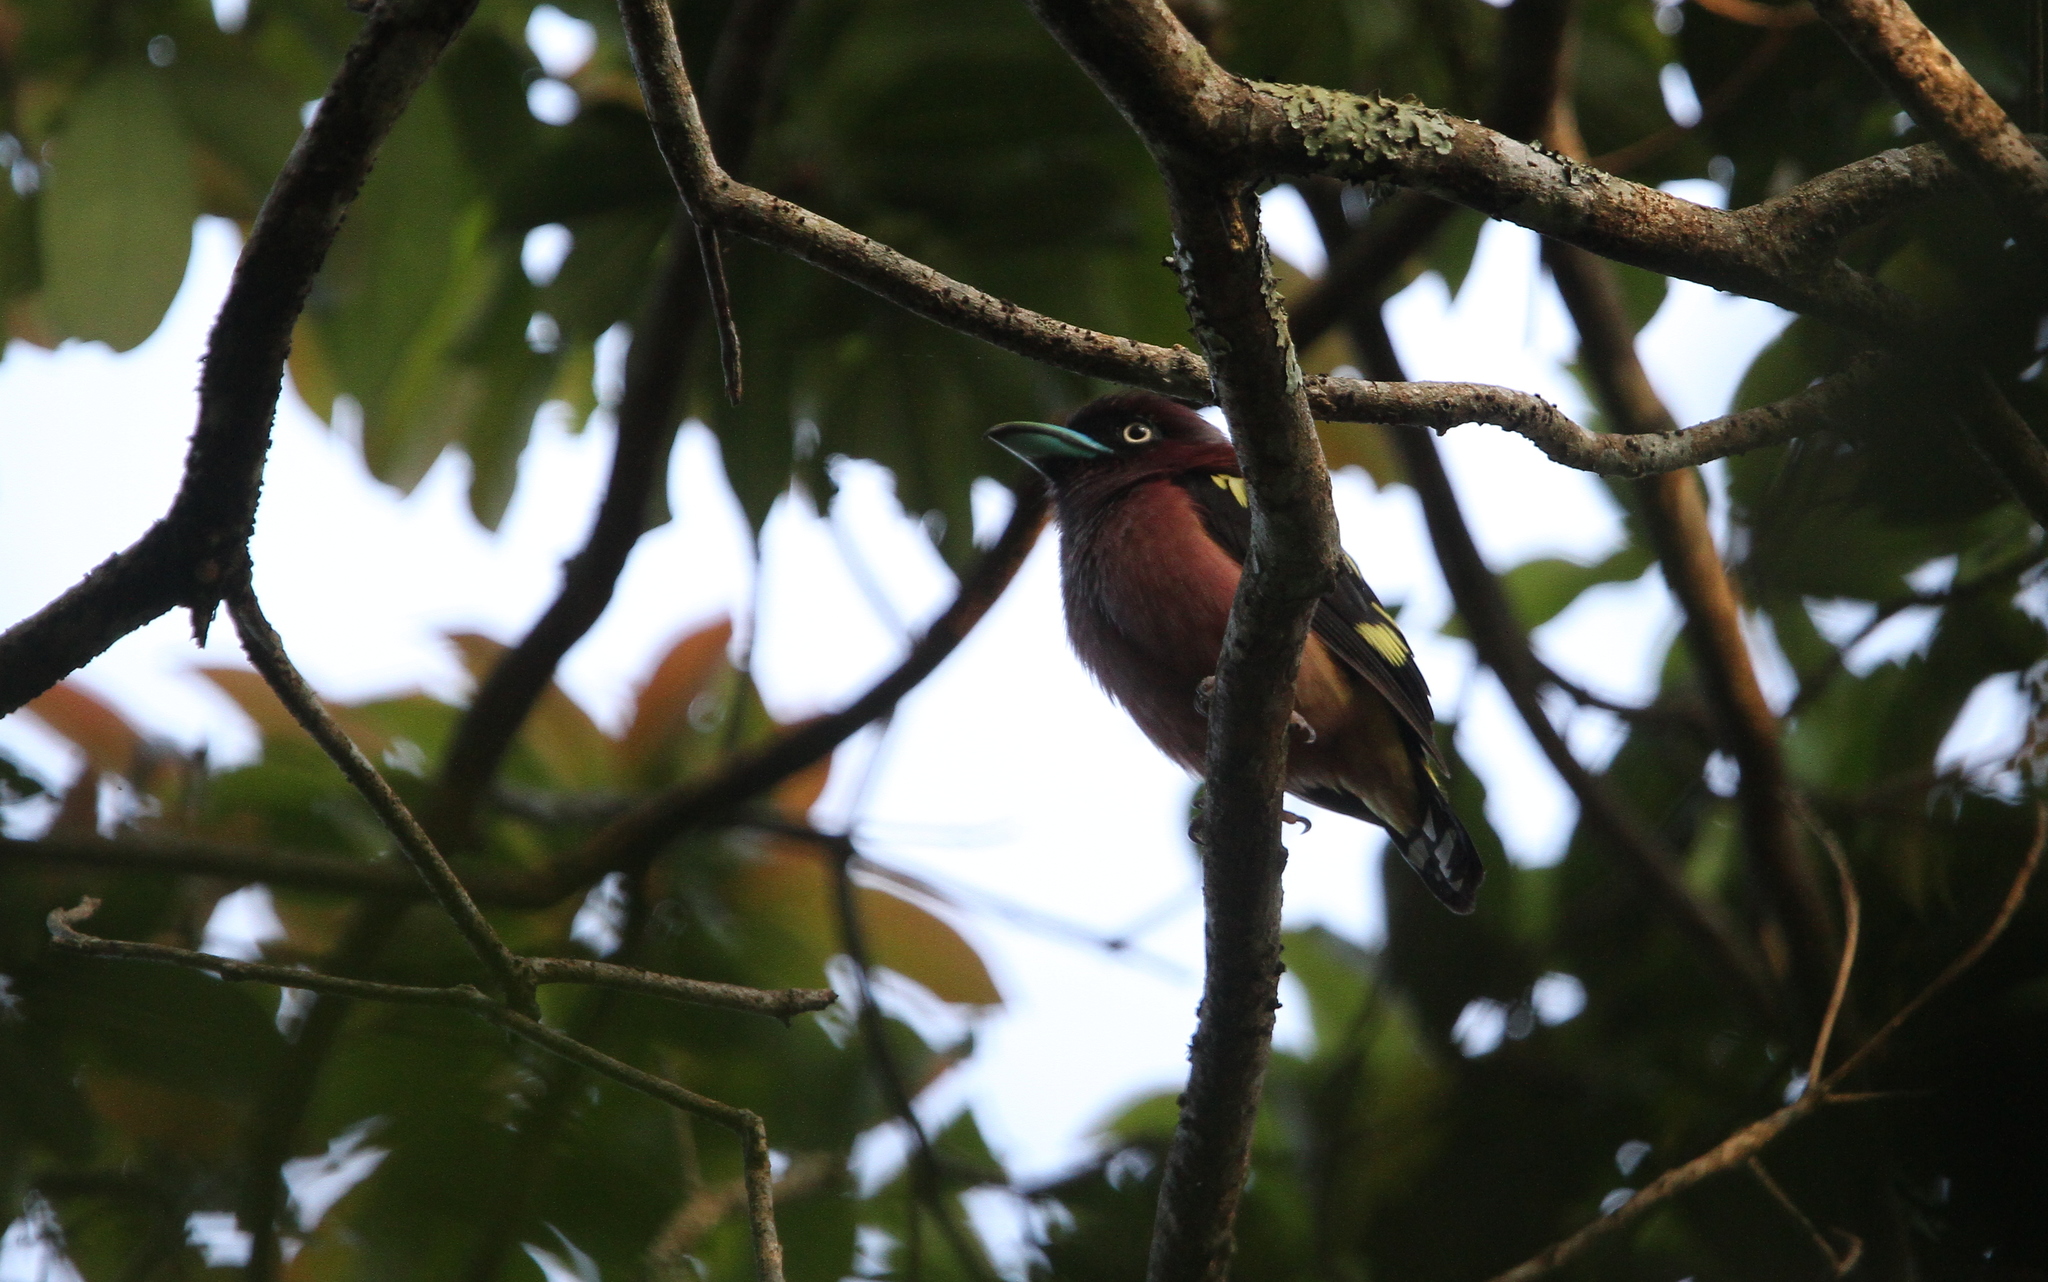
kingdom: Animalia
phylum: Chordata
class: Aves
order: Passeriformes
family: Eurylaimidae
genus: Eurylaimus
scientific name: Eurylaimus javanicus
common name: Banded broadbill
